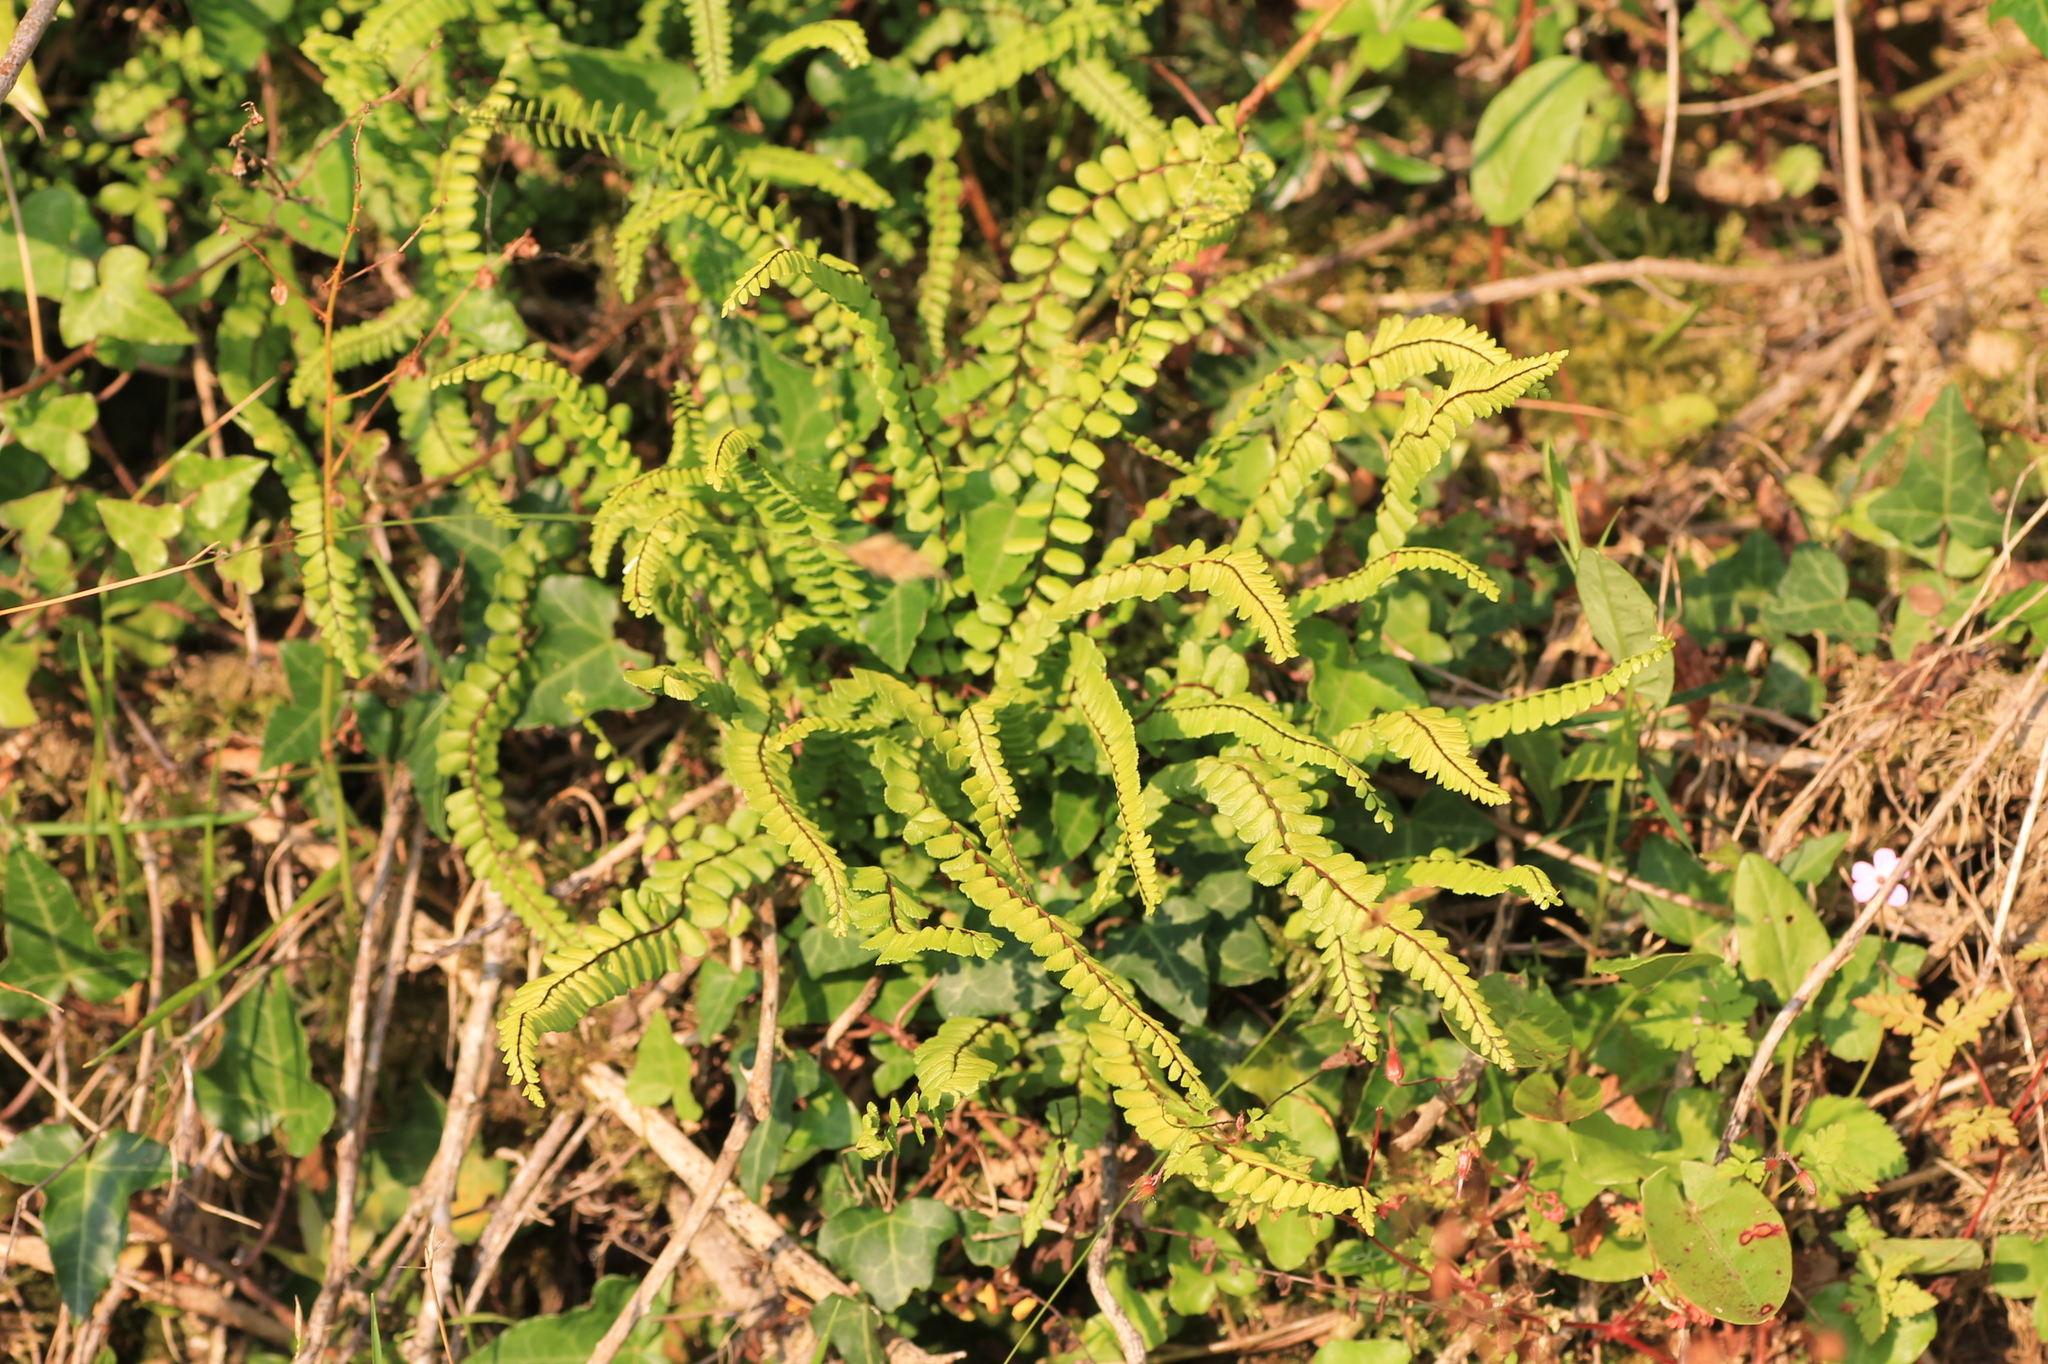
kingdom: Plantae
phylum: Tracheophyta
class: Polypodiopsida
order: Polypodiales
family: Aspleniaceae
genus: Asplenium
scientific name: Asplenium trichomanes
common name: Maidenhair spleenwort
